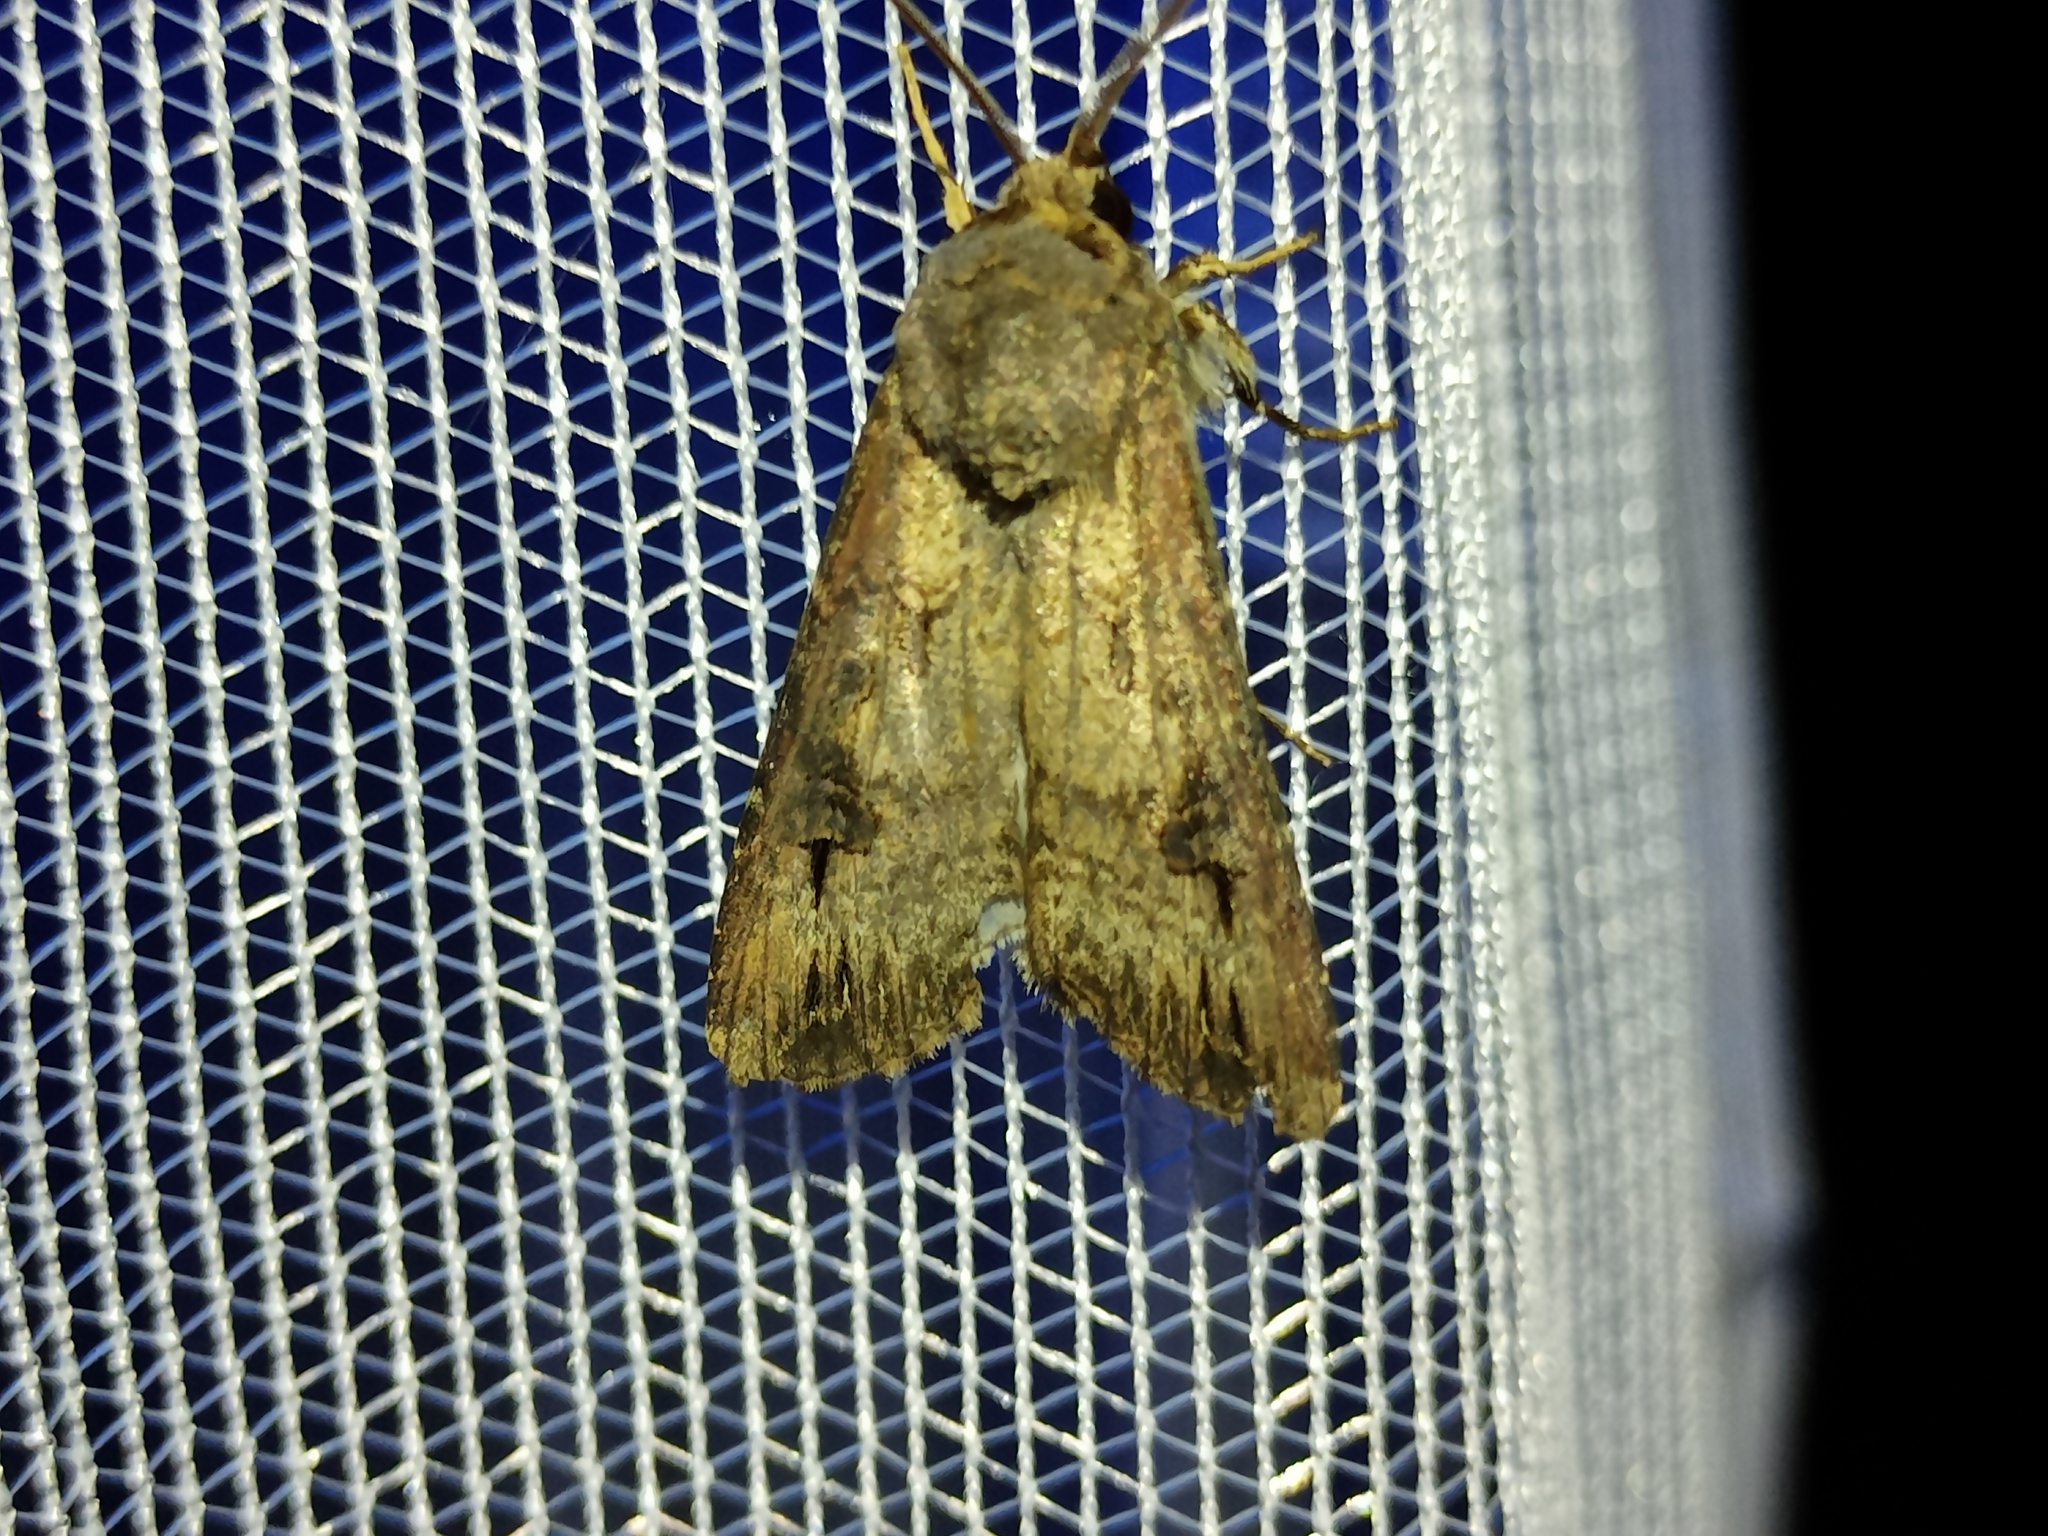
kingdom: Animalia
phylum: Arthropoda
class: Insecta
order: Lepidoptera
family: Noctuidae
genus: Agrotis
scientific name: Agrotis ipsilon
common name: Dark sword-grass
